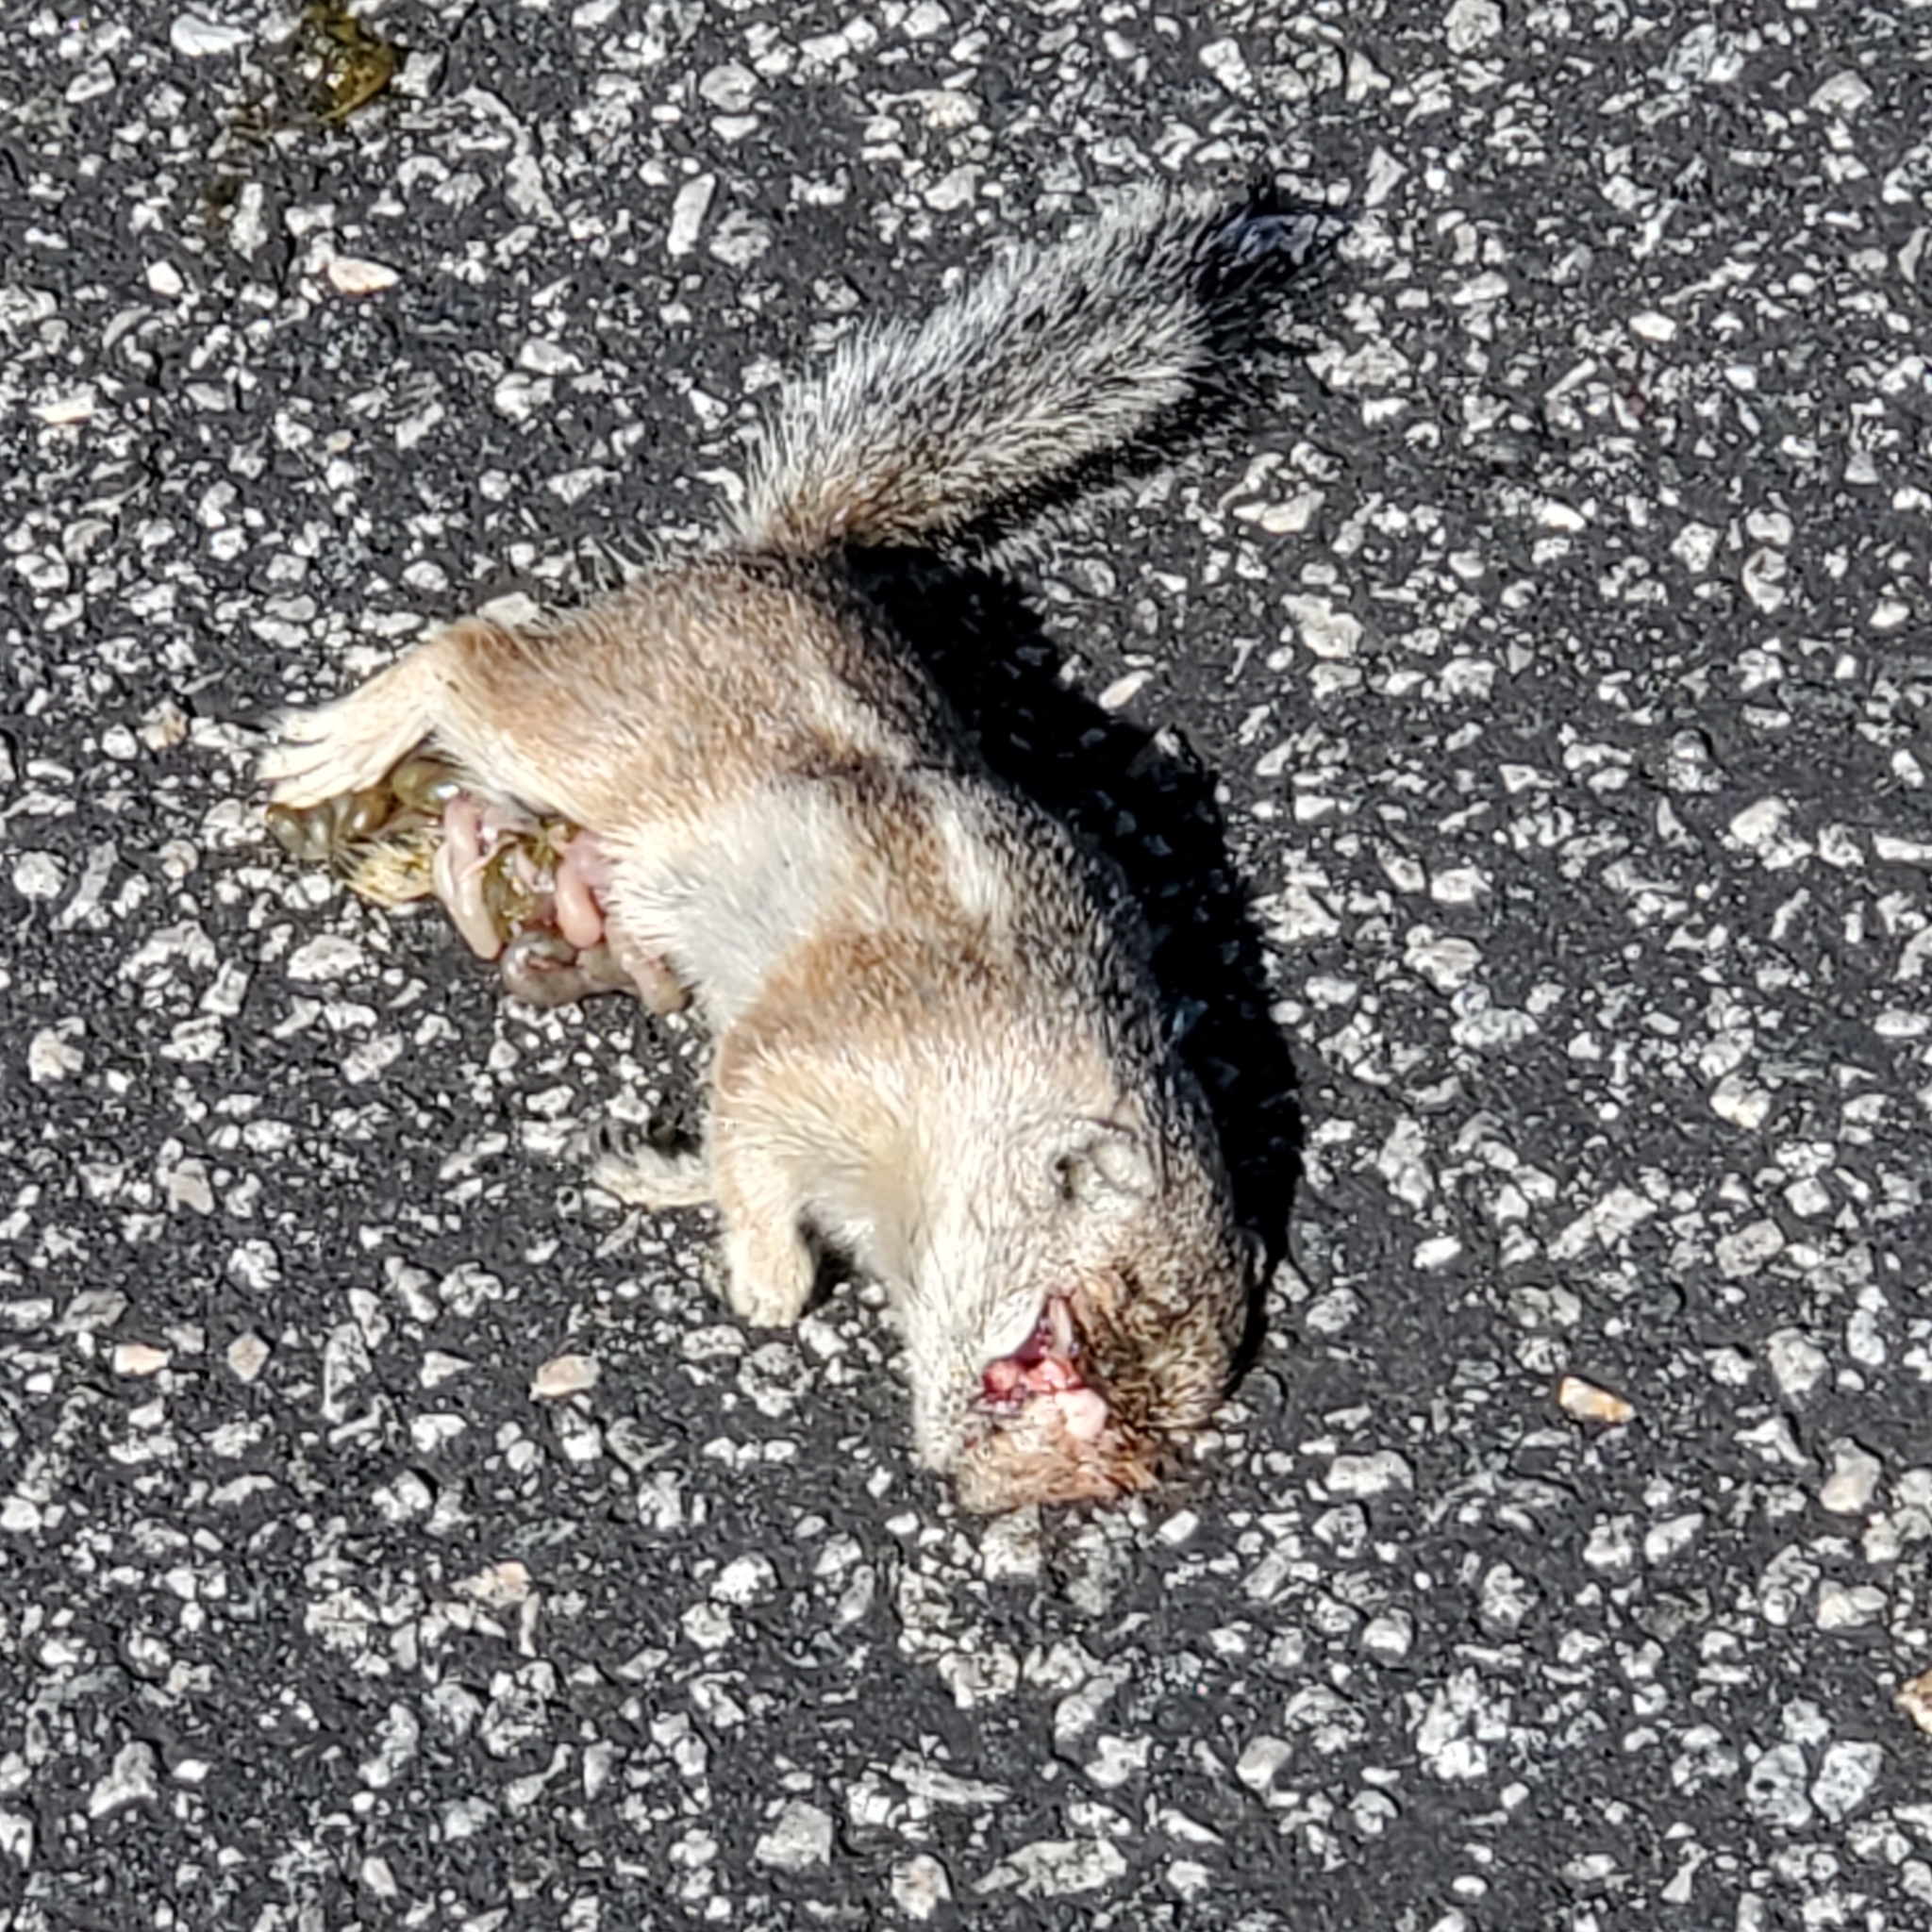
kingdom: Animalia
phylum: Chordata
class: Mammalia
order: Rodentia
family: Sciuridae
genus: Ammospermophilus
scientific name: Ammospermophilus leucurus
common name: White-tailed antelope squirrel
